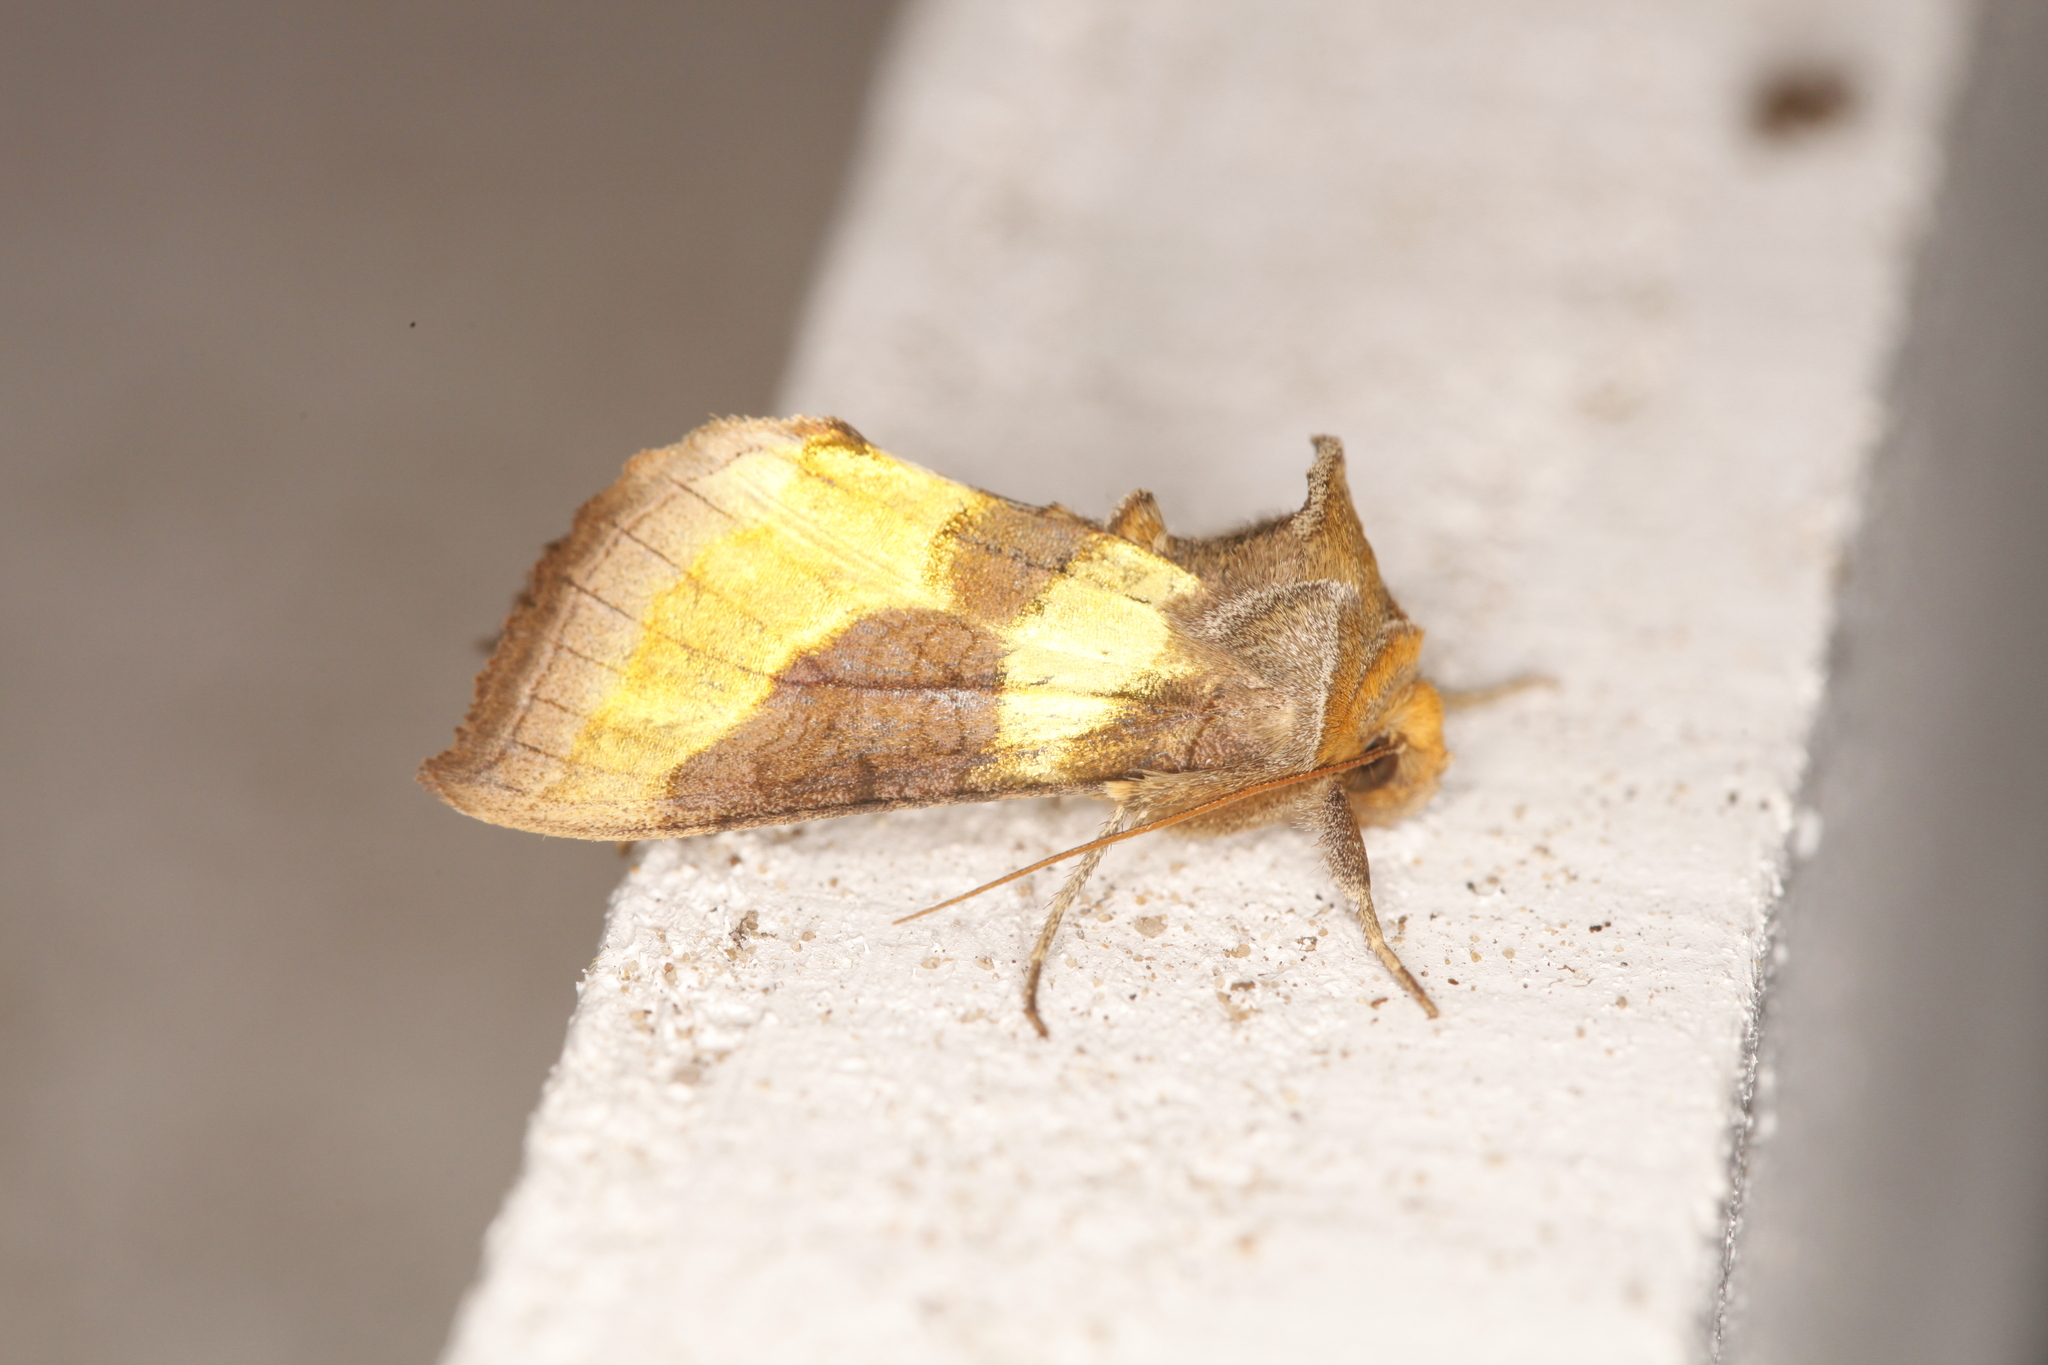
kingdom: Animalia
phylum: Arthropoda
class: Insecta
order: Lepidoptera
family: Noctuidae
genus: Diachrysia
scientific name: Diachrysia chrysitis
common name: Burnished brass
